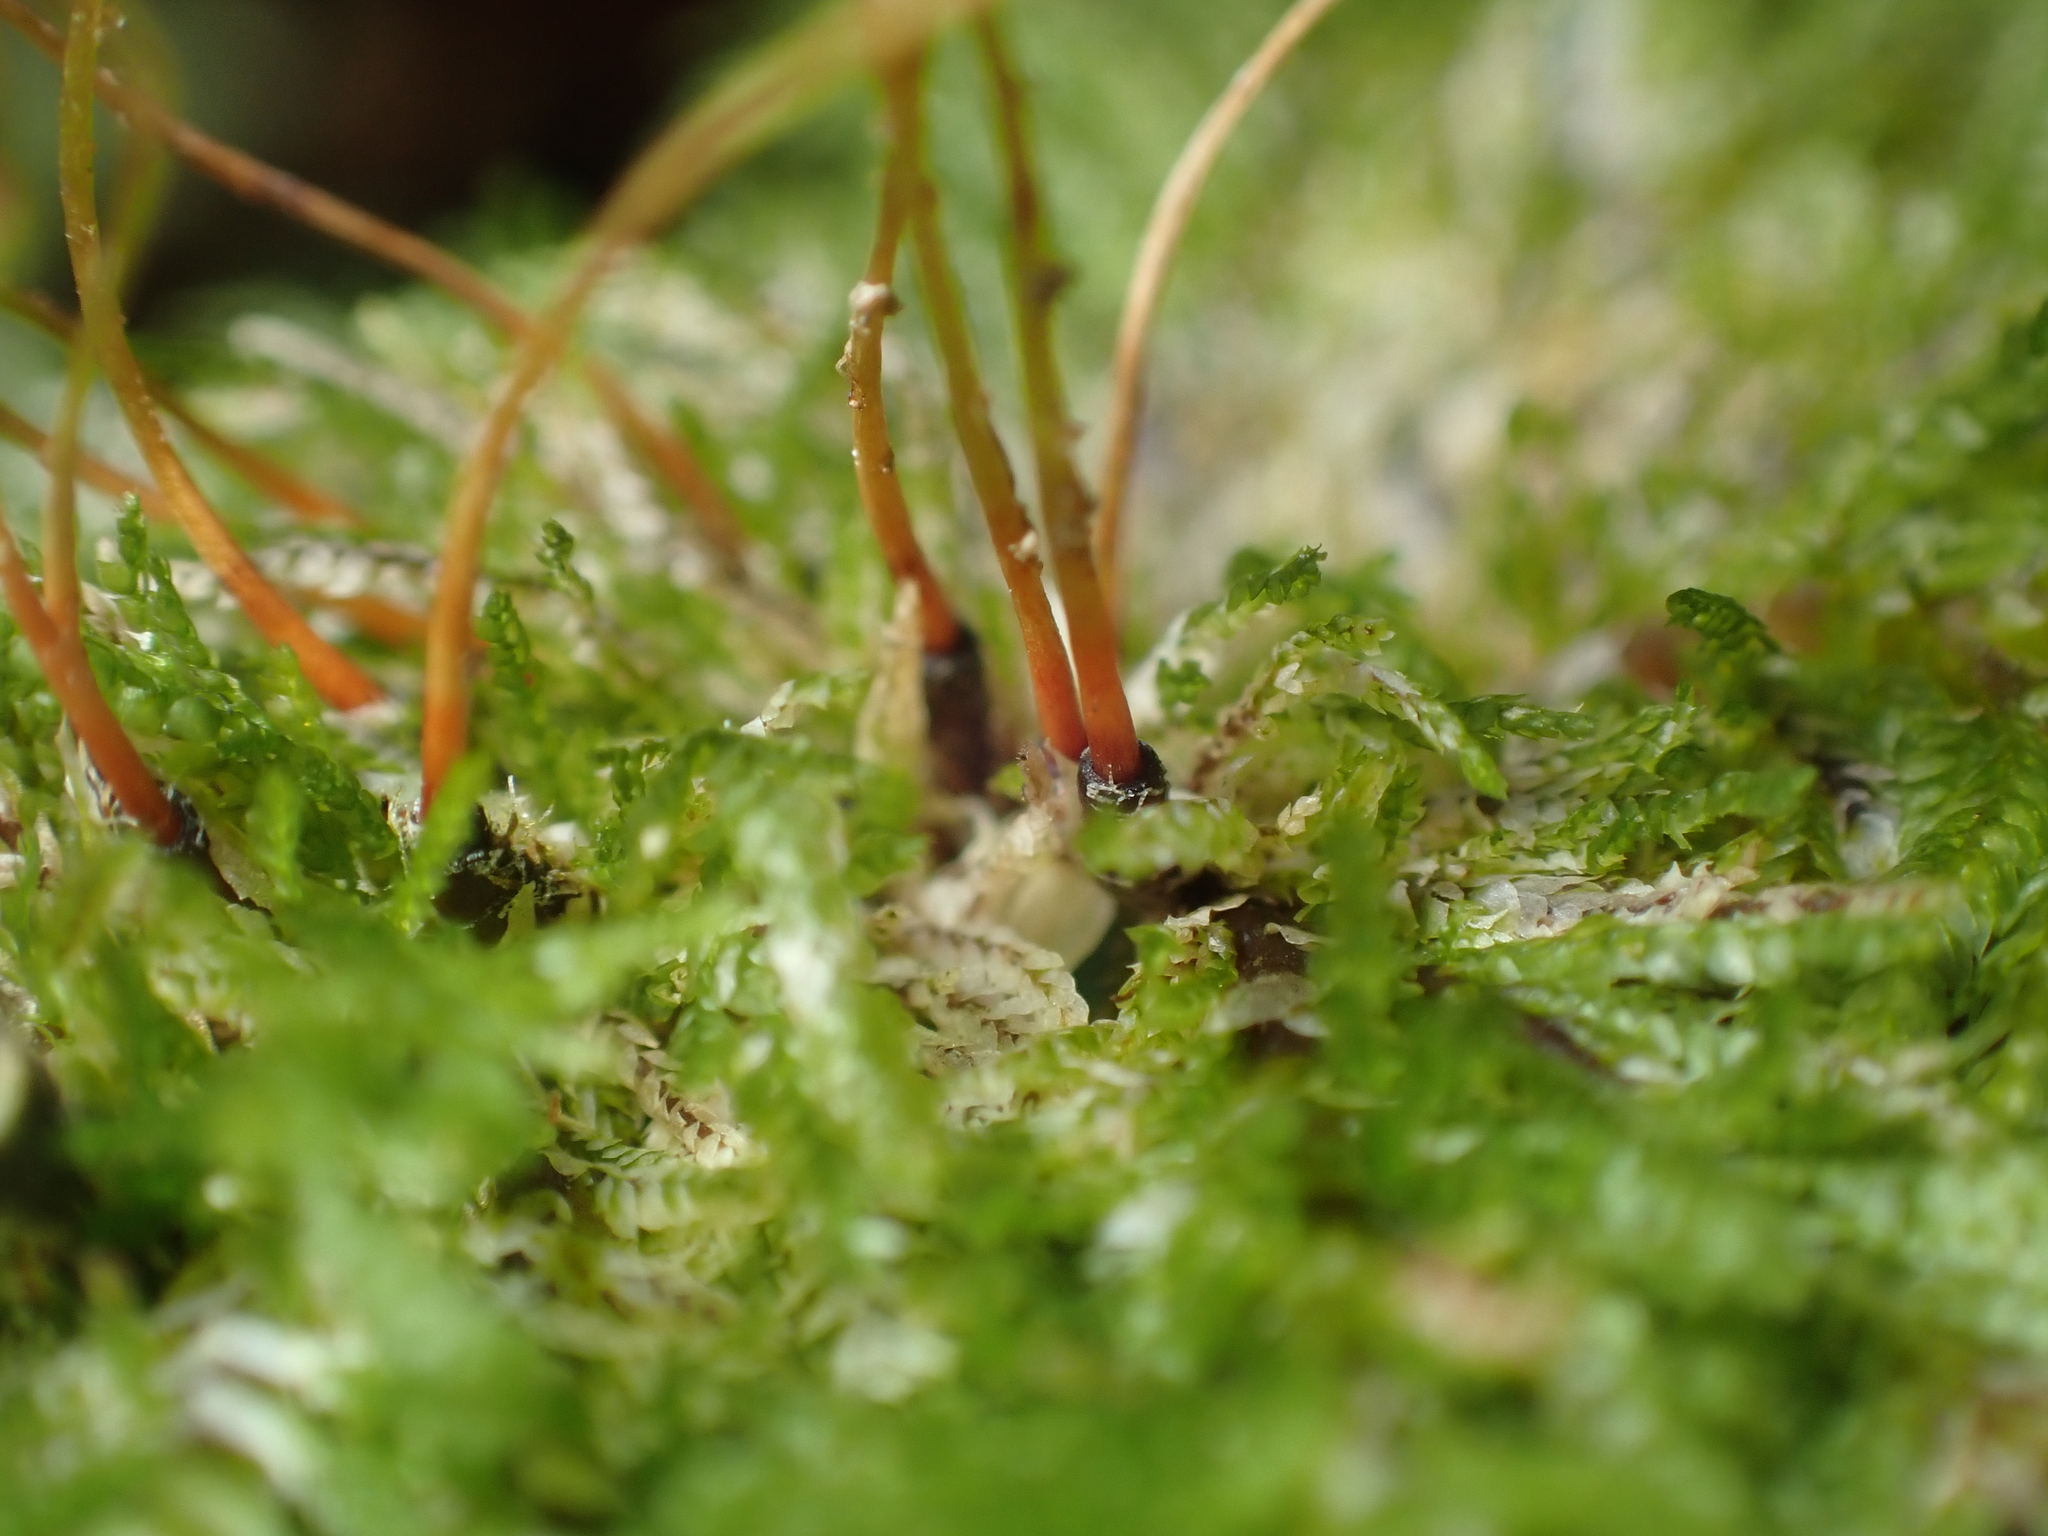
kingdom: Plantae
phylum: Bryophyta
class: Bryopsida
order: Hypopterygiales
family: Hypopterygiaceae
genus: Dendrohypopterygium
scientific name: Dendrohypopterygium filiculiforme
